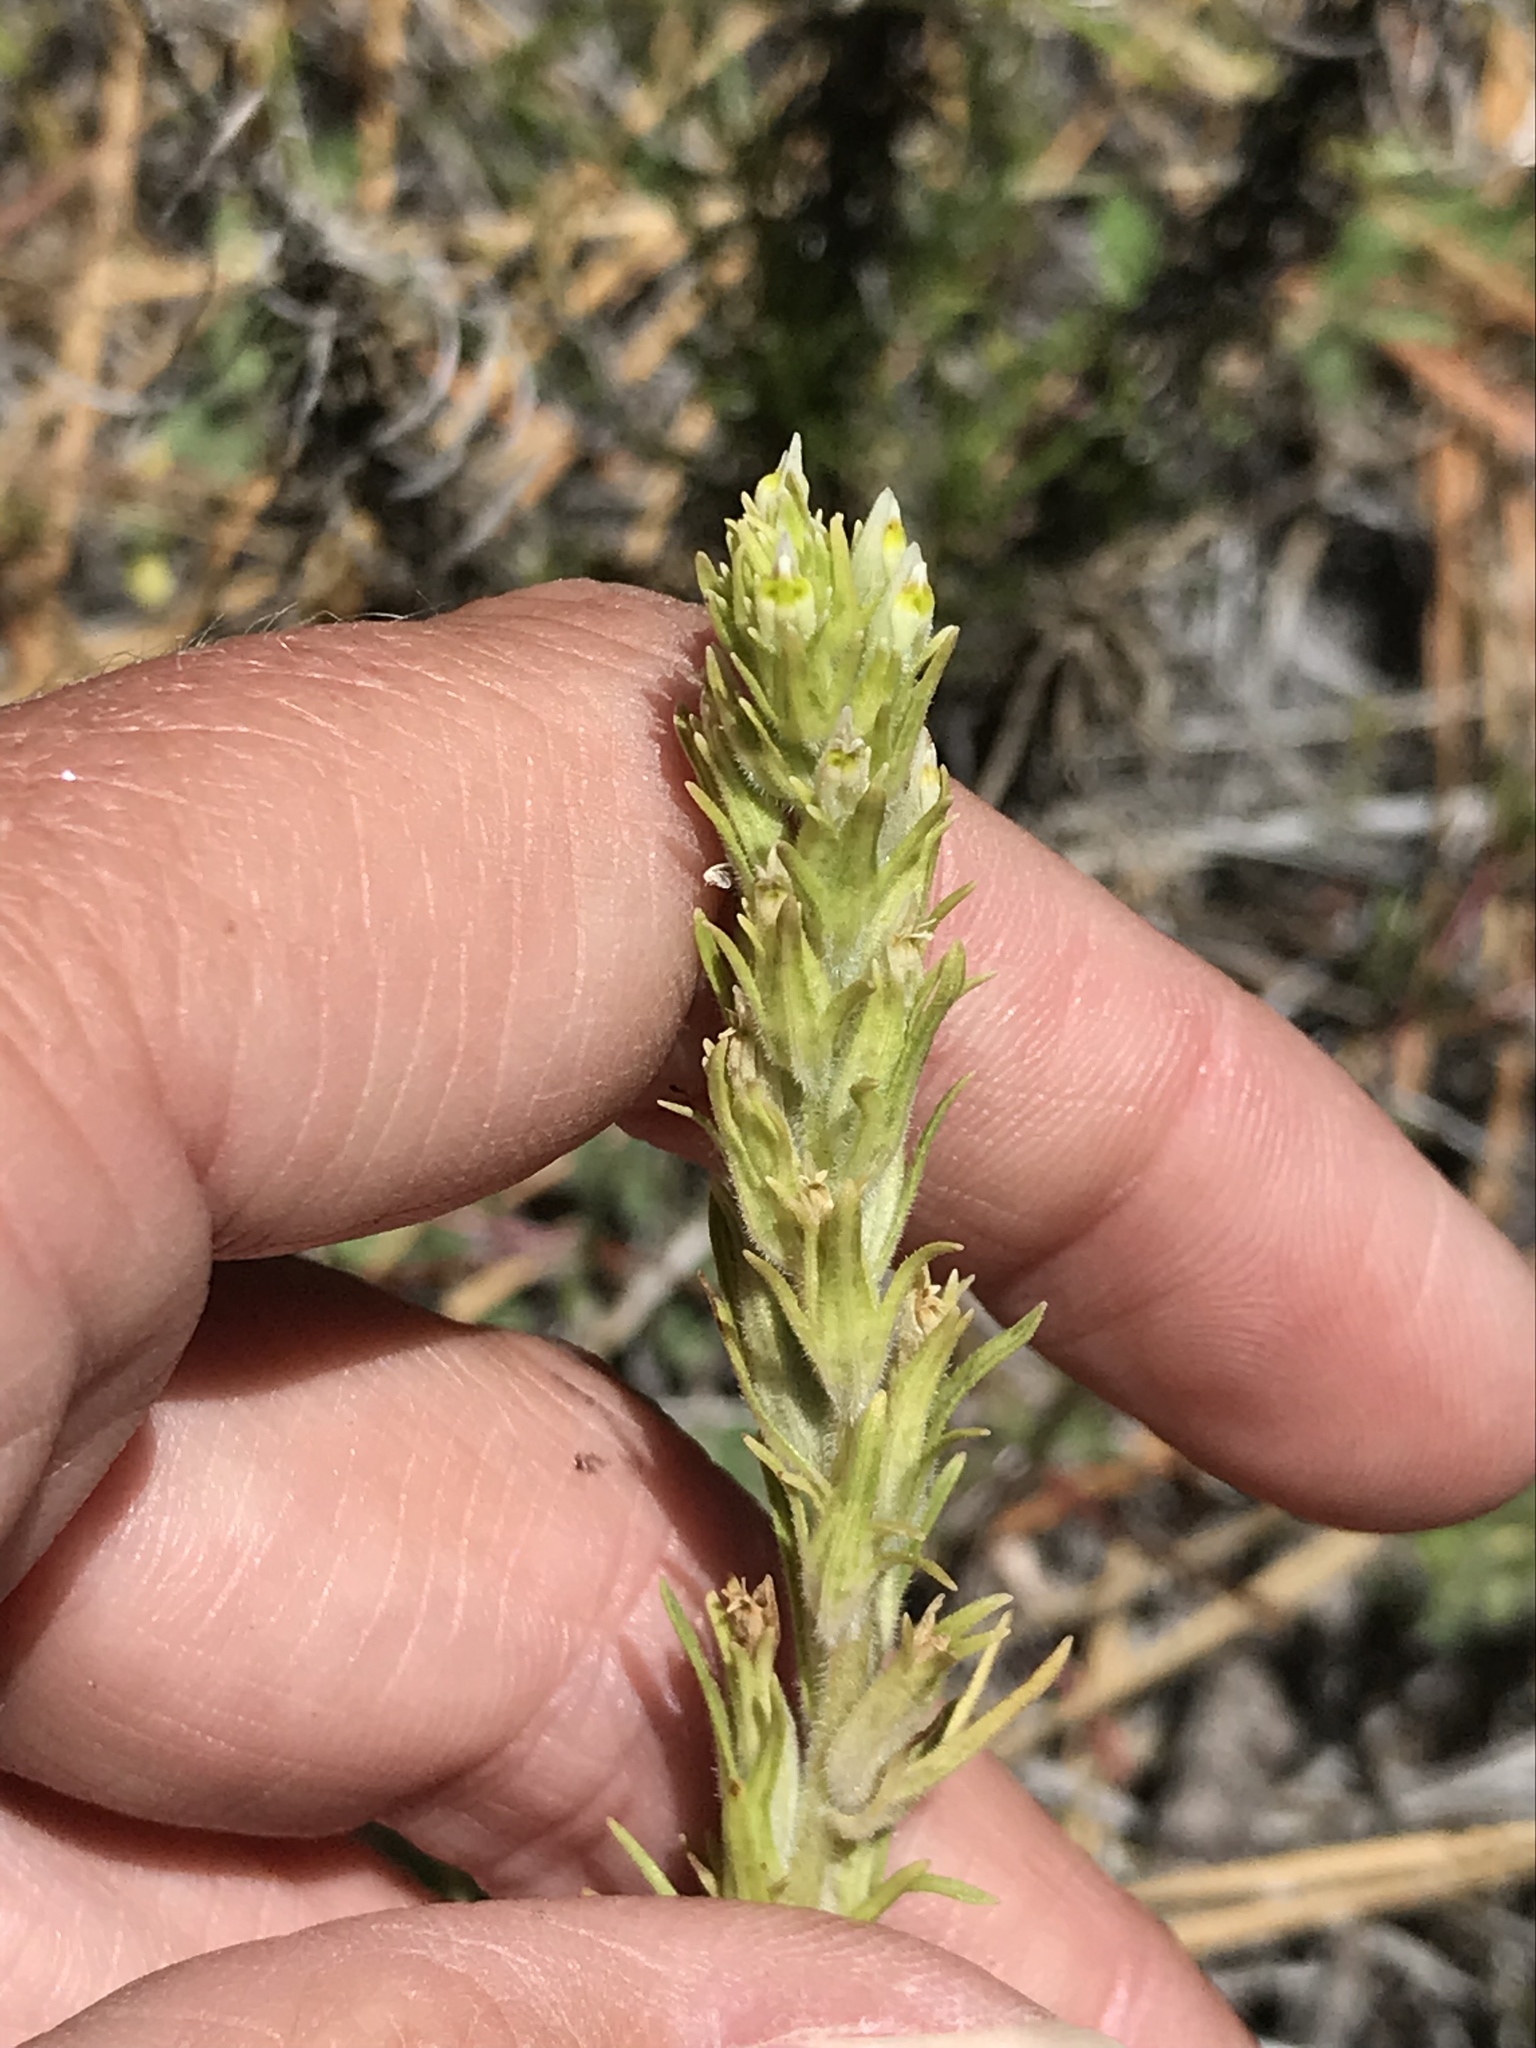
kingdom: Plantae
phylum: Tracheophyta
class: Magnoliopsida
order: Lamiales
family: Orobanchaceae
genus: Castilleja
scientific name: Castilleja attenuata
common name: Valley tassels
